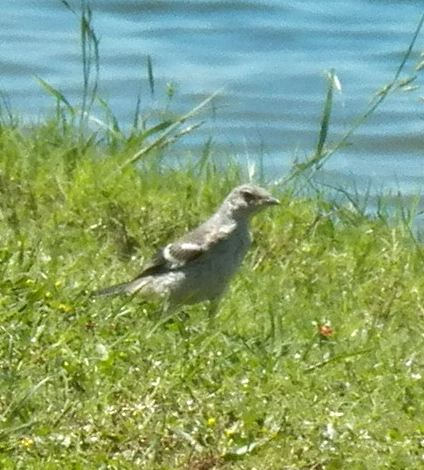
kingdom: Animalia
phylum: Chordata
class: Aves
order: Passeriformes
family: Mimidae
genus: Mimus
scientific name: Mimus polyglottos
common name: Northern mockingbird
